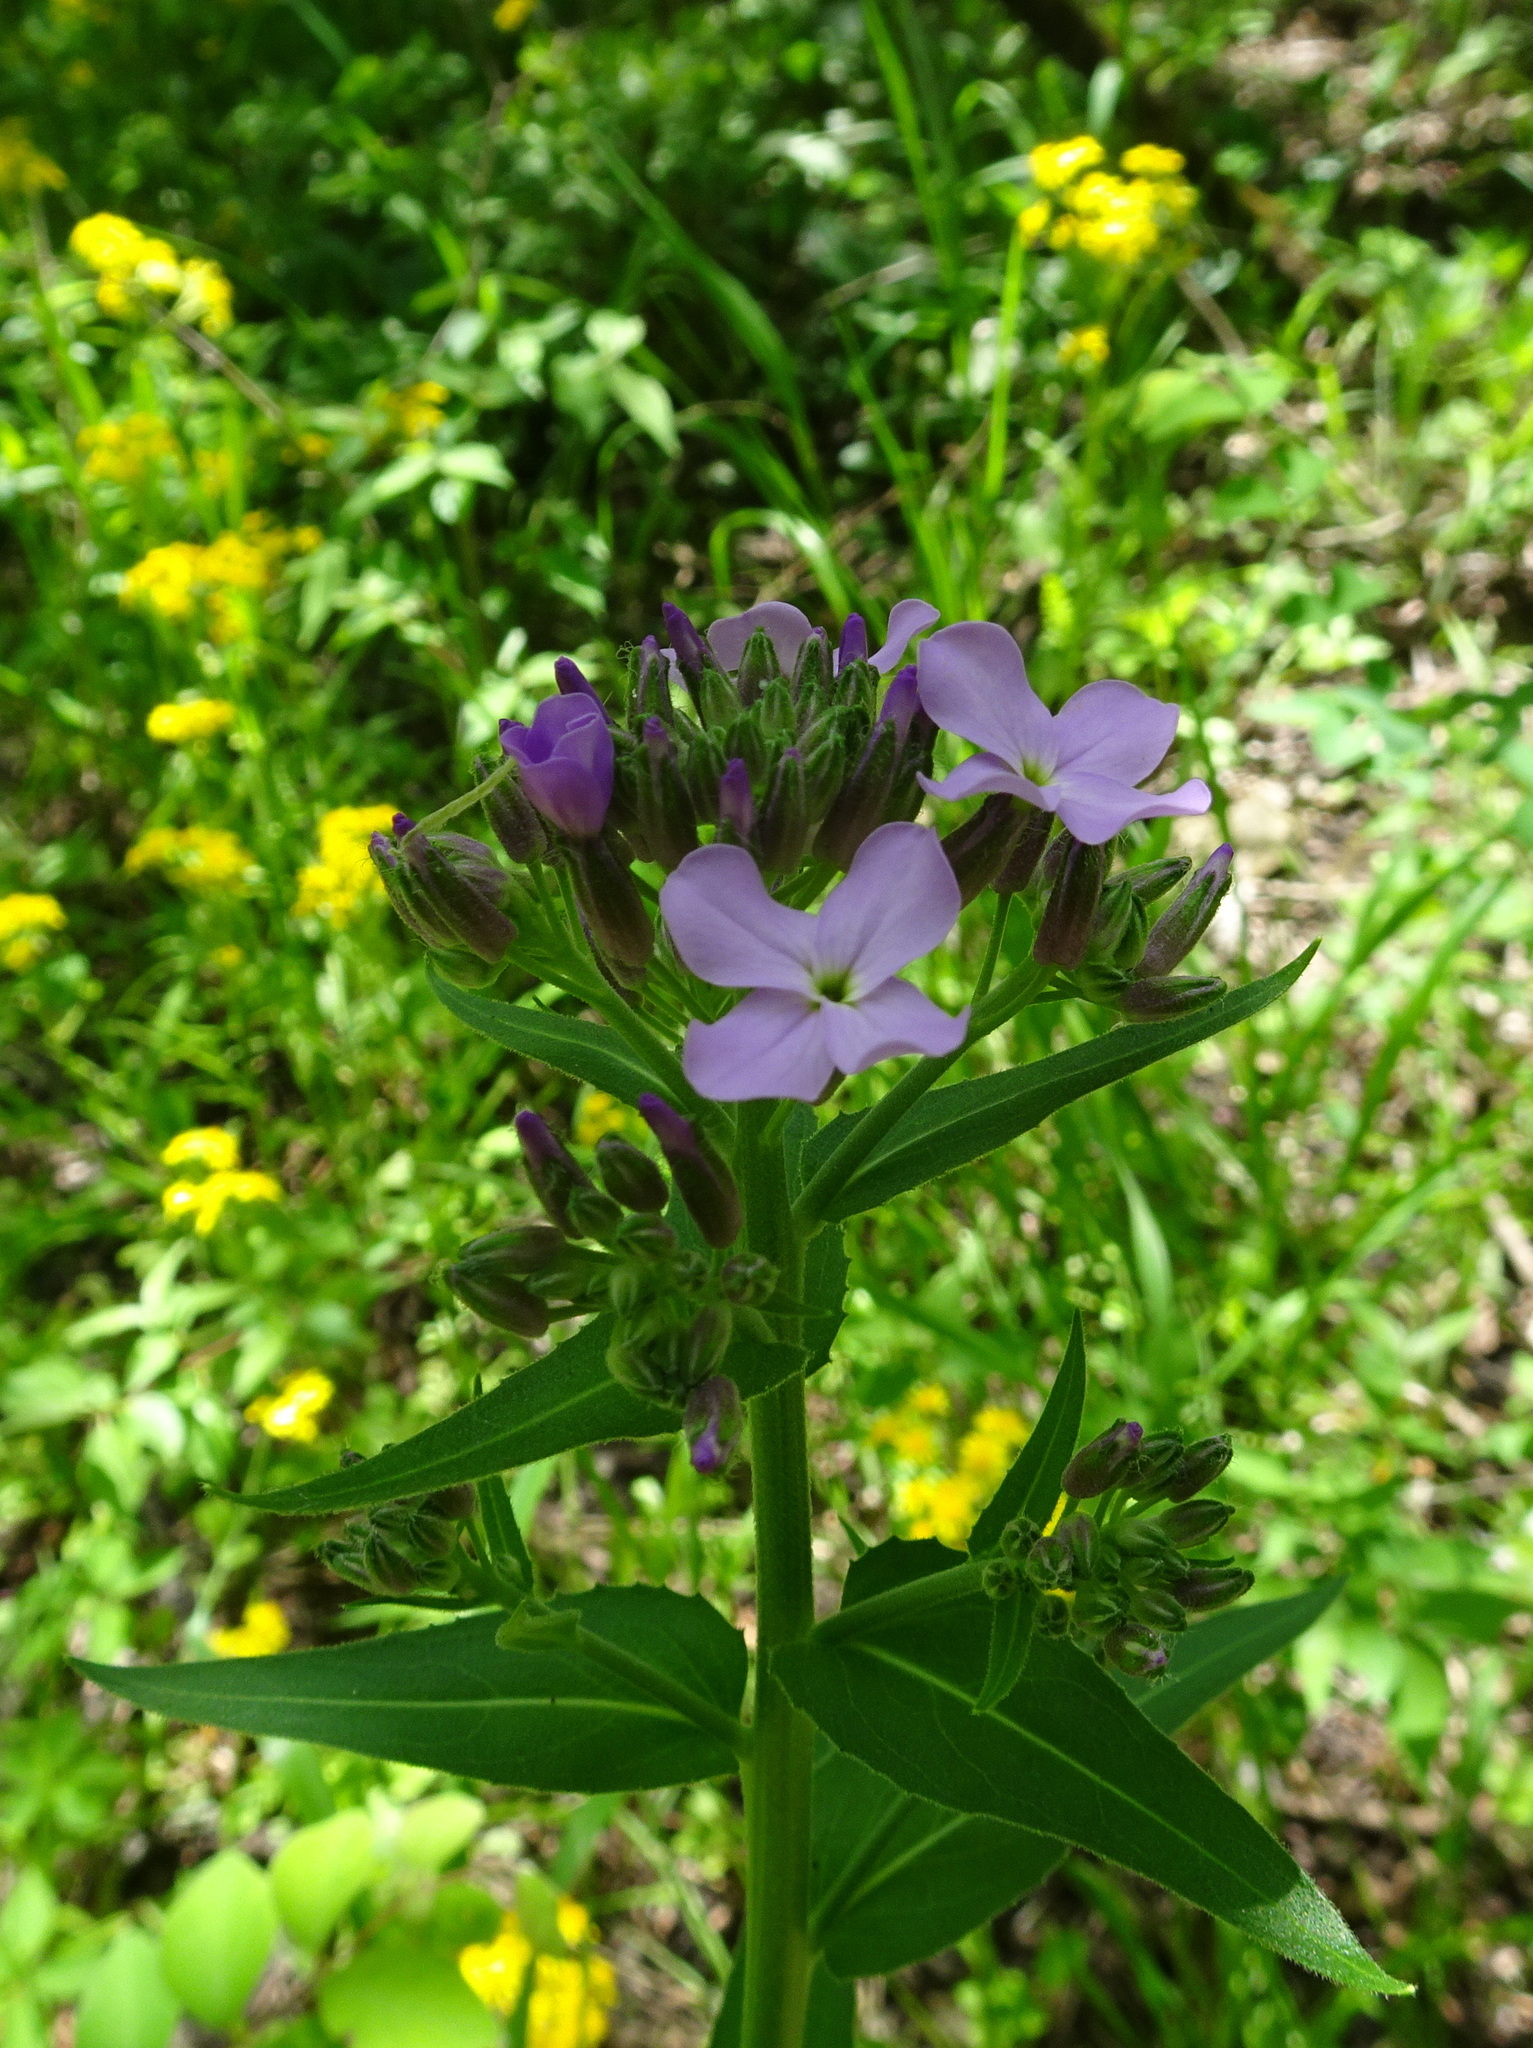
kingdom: Plantae
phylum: Tracheophyta
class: Magnoliopsida
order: Brassicales
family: Brassicaceae
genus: Hesperis
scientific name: Hesperis matronalis
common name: Dame's-violet
